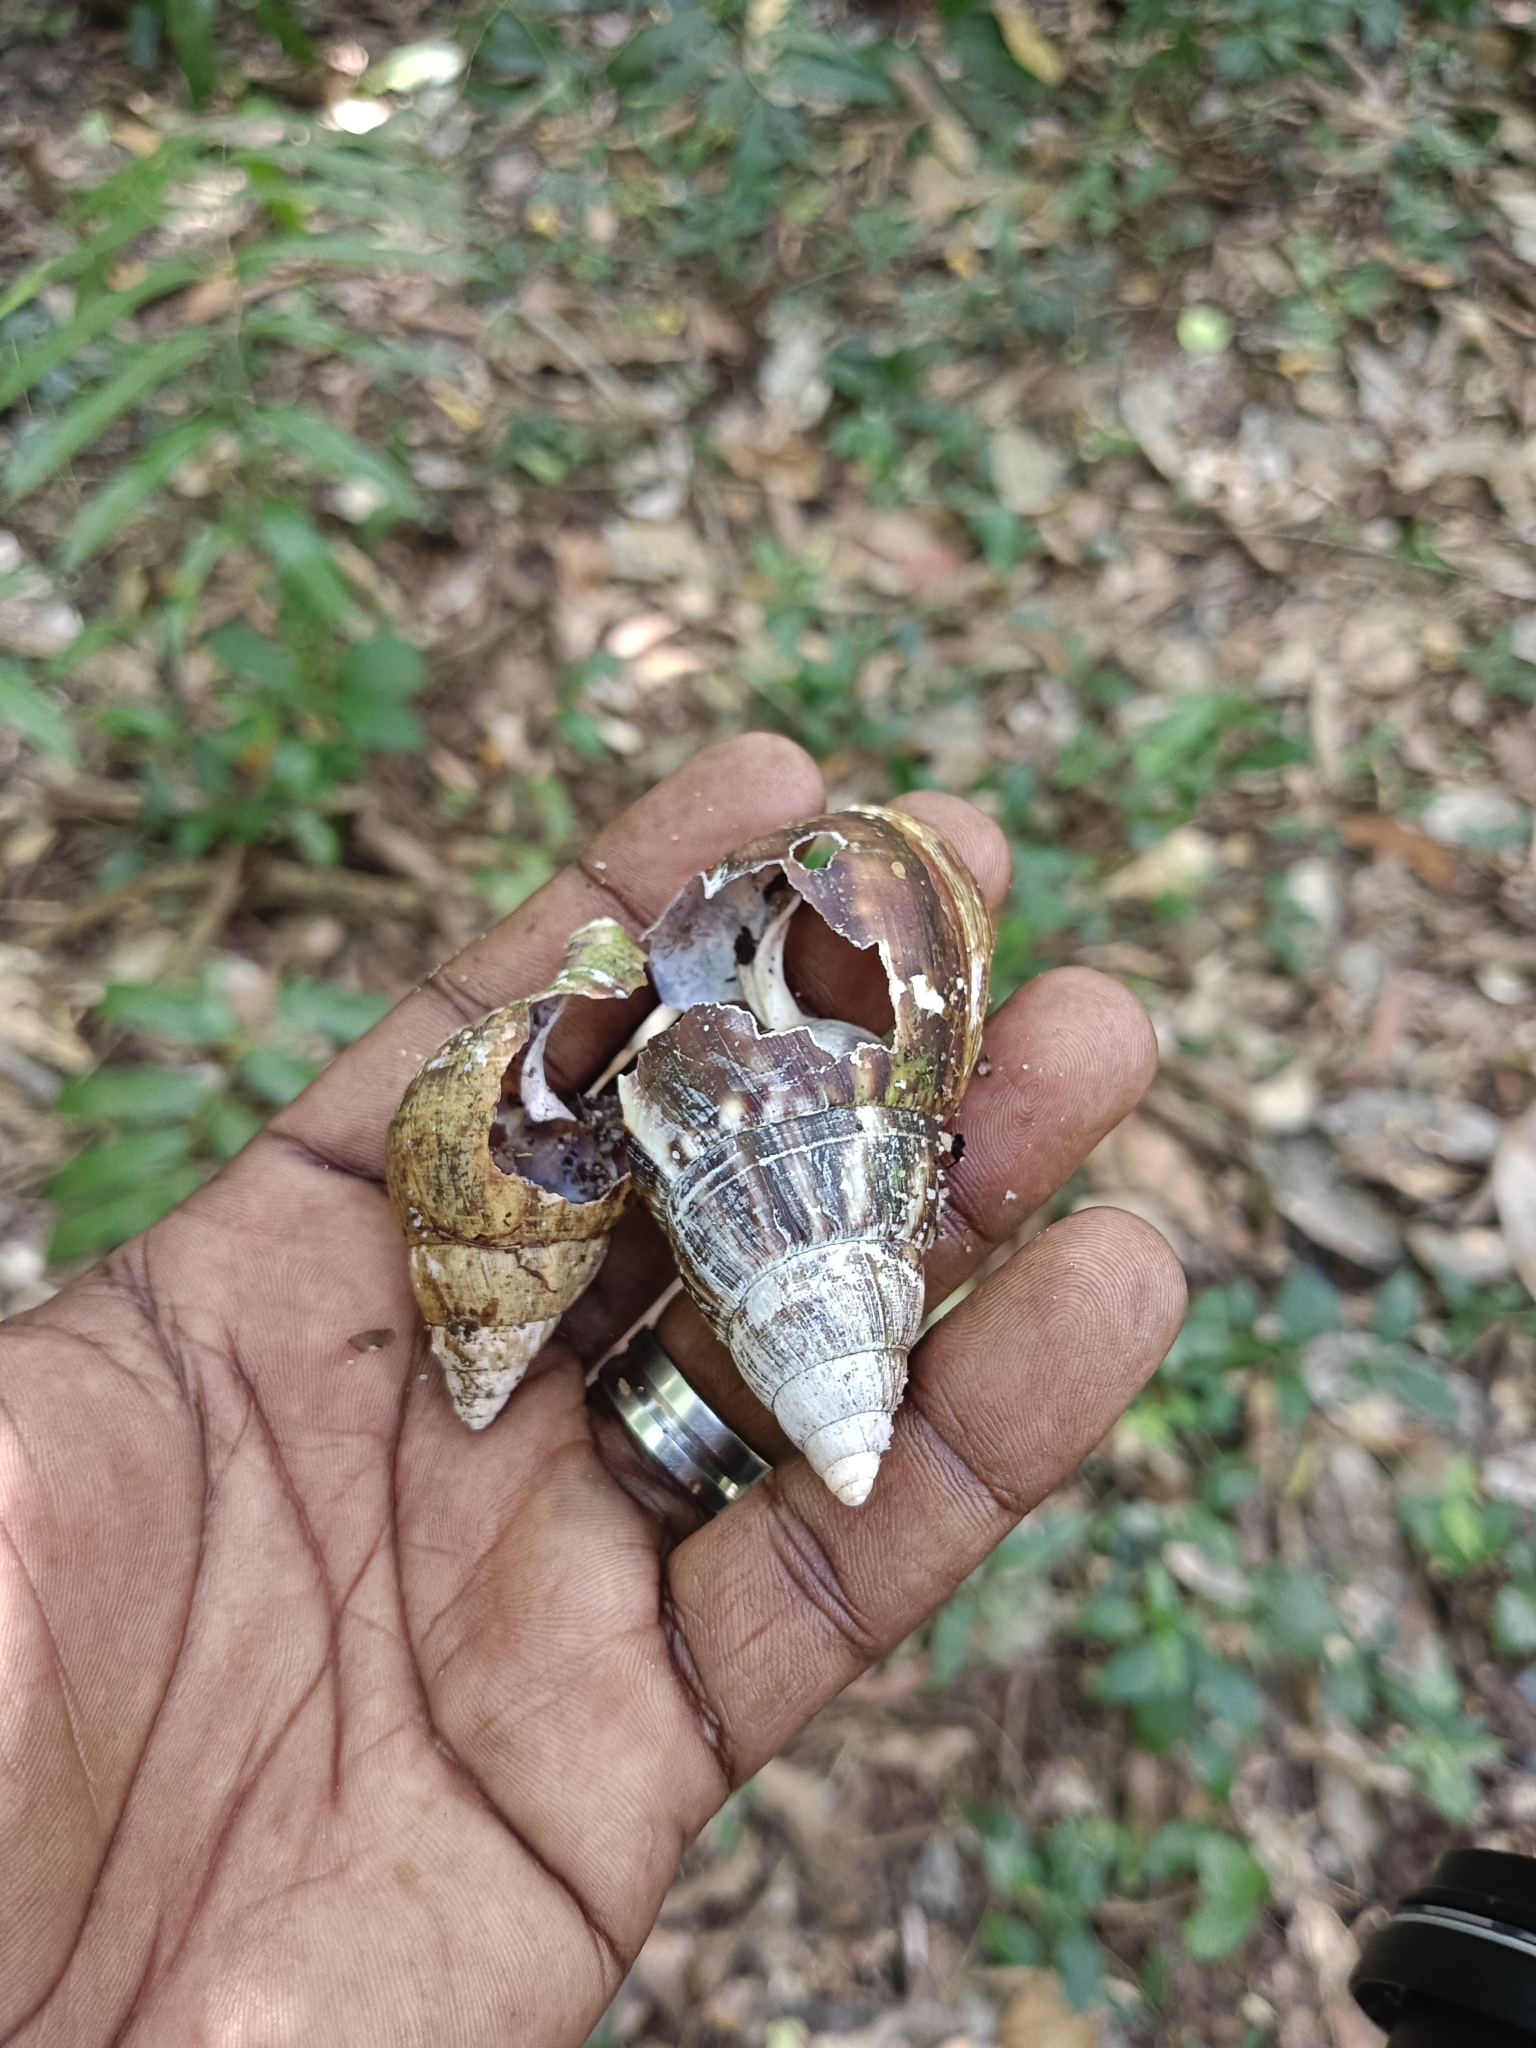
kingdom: Animalia
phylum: Mollusca
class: Gastropoda
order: Stylommatophora
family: Achatinidae
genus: Lissachatina
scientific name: Lissachatina fulica
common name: Giant african snail
